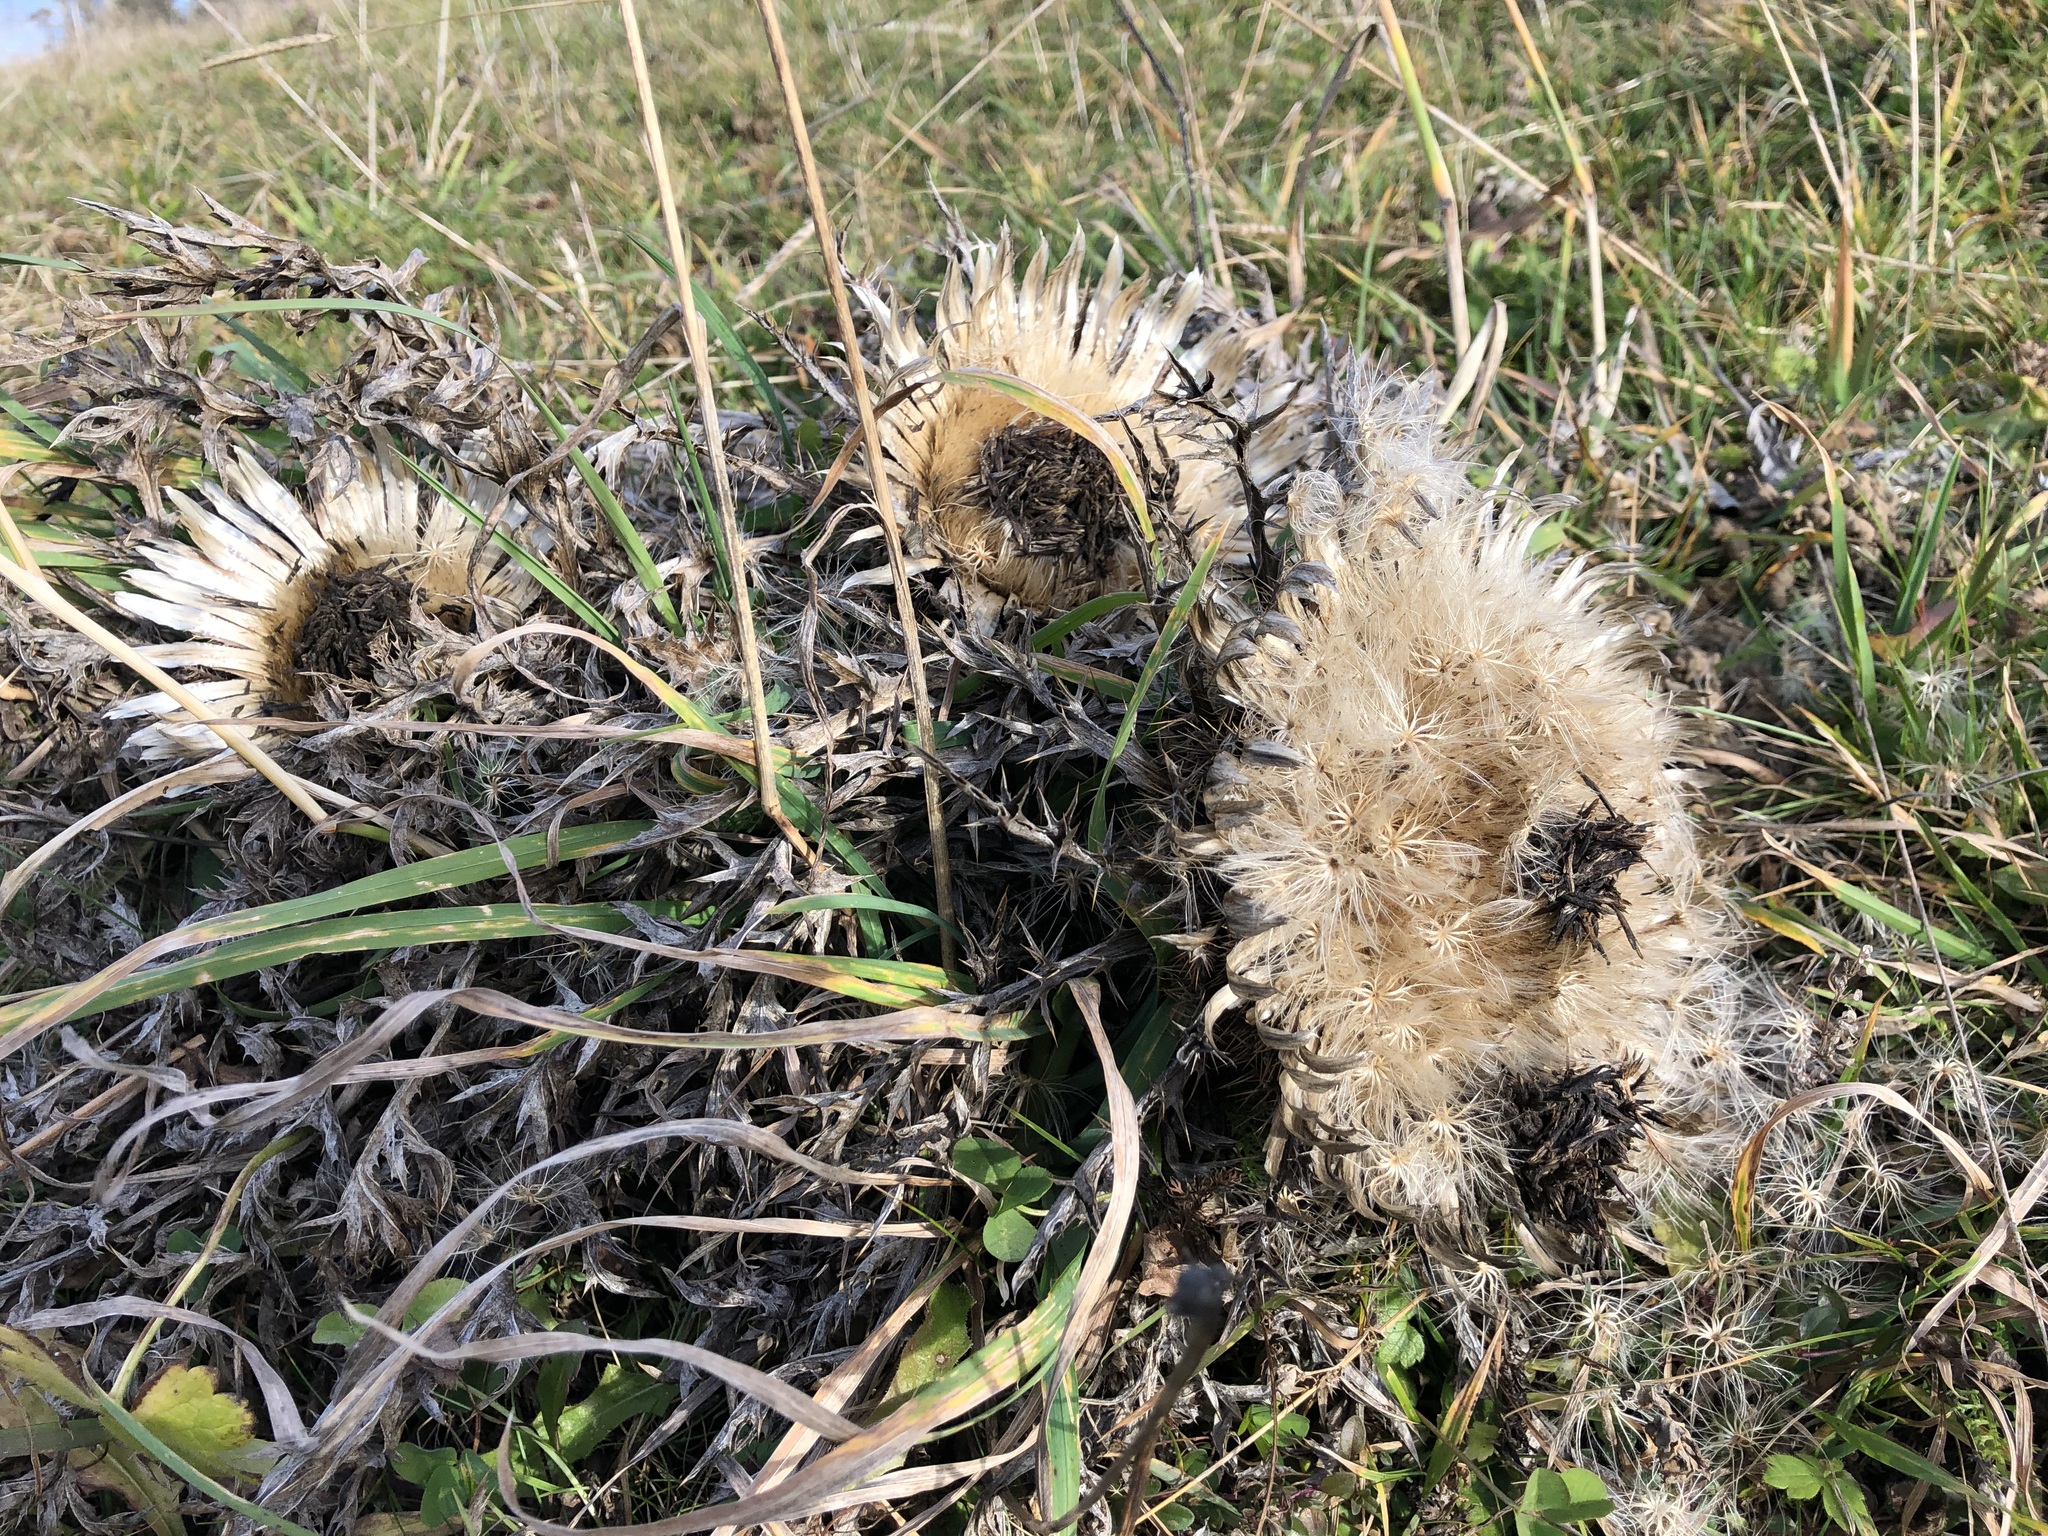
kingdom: Plantae
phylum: Tracheophyta
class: Magnoliopsida
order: Asterales
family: Asteraceae
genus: Carlina
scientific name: Carlina acaulis
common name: Stemless carline thistle
